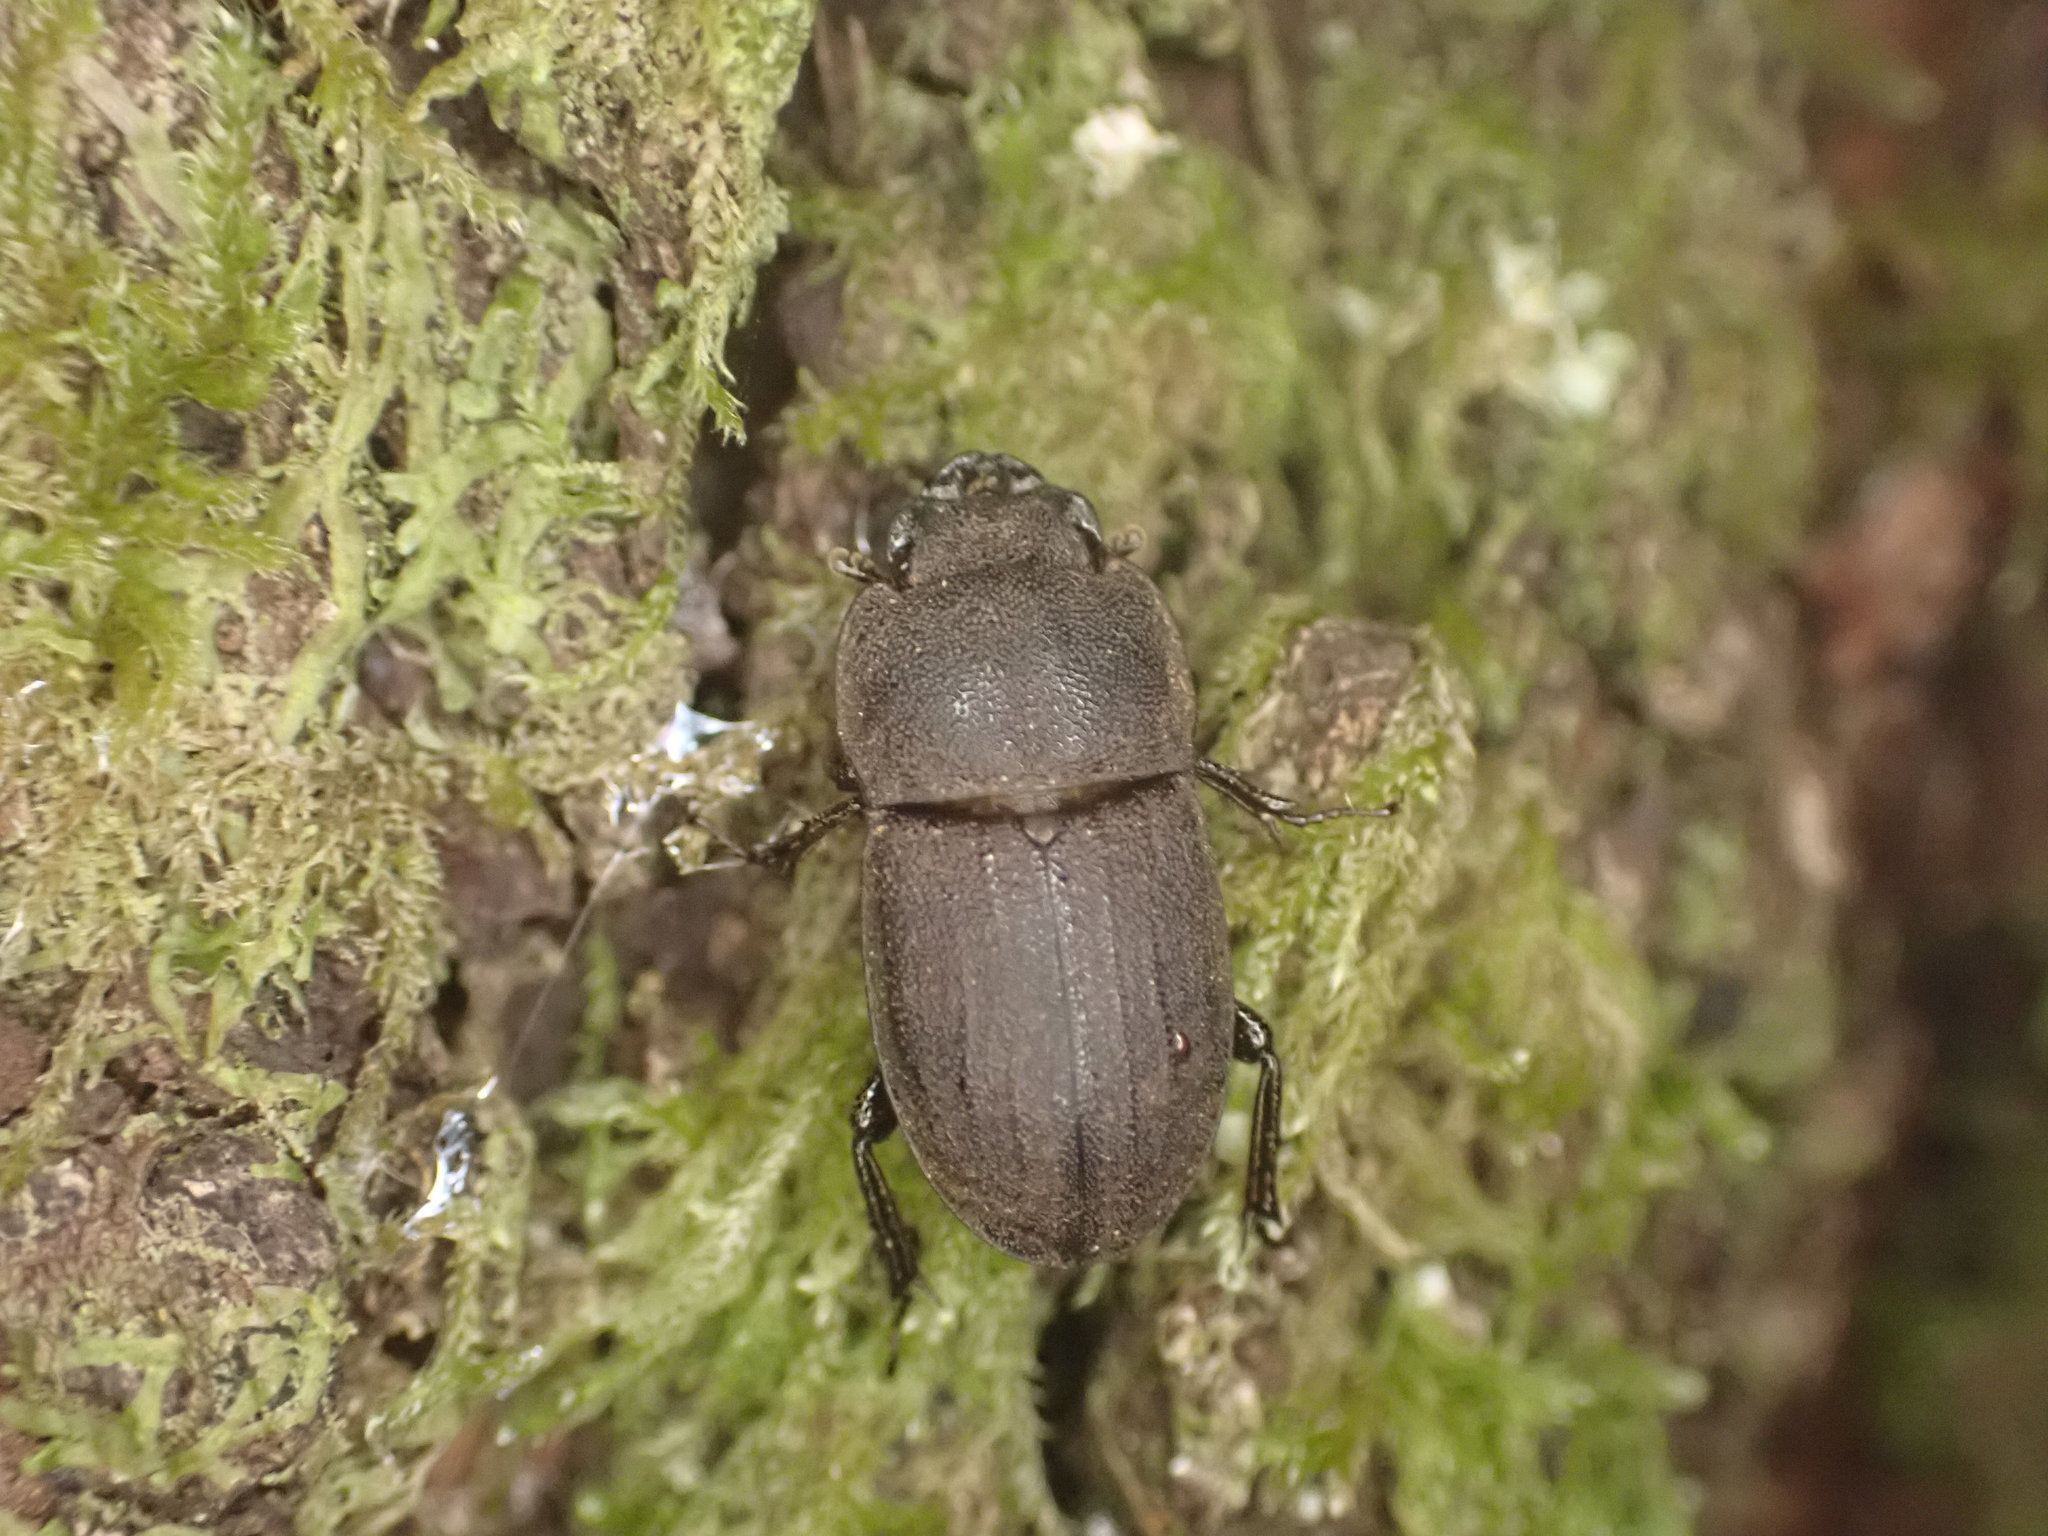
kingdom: Animalia
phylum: Arthropoda
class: Insecta
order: Coleoptera
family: Lucanidae
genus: Geodorcus
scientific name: Geodorcus novaezealandiae
